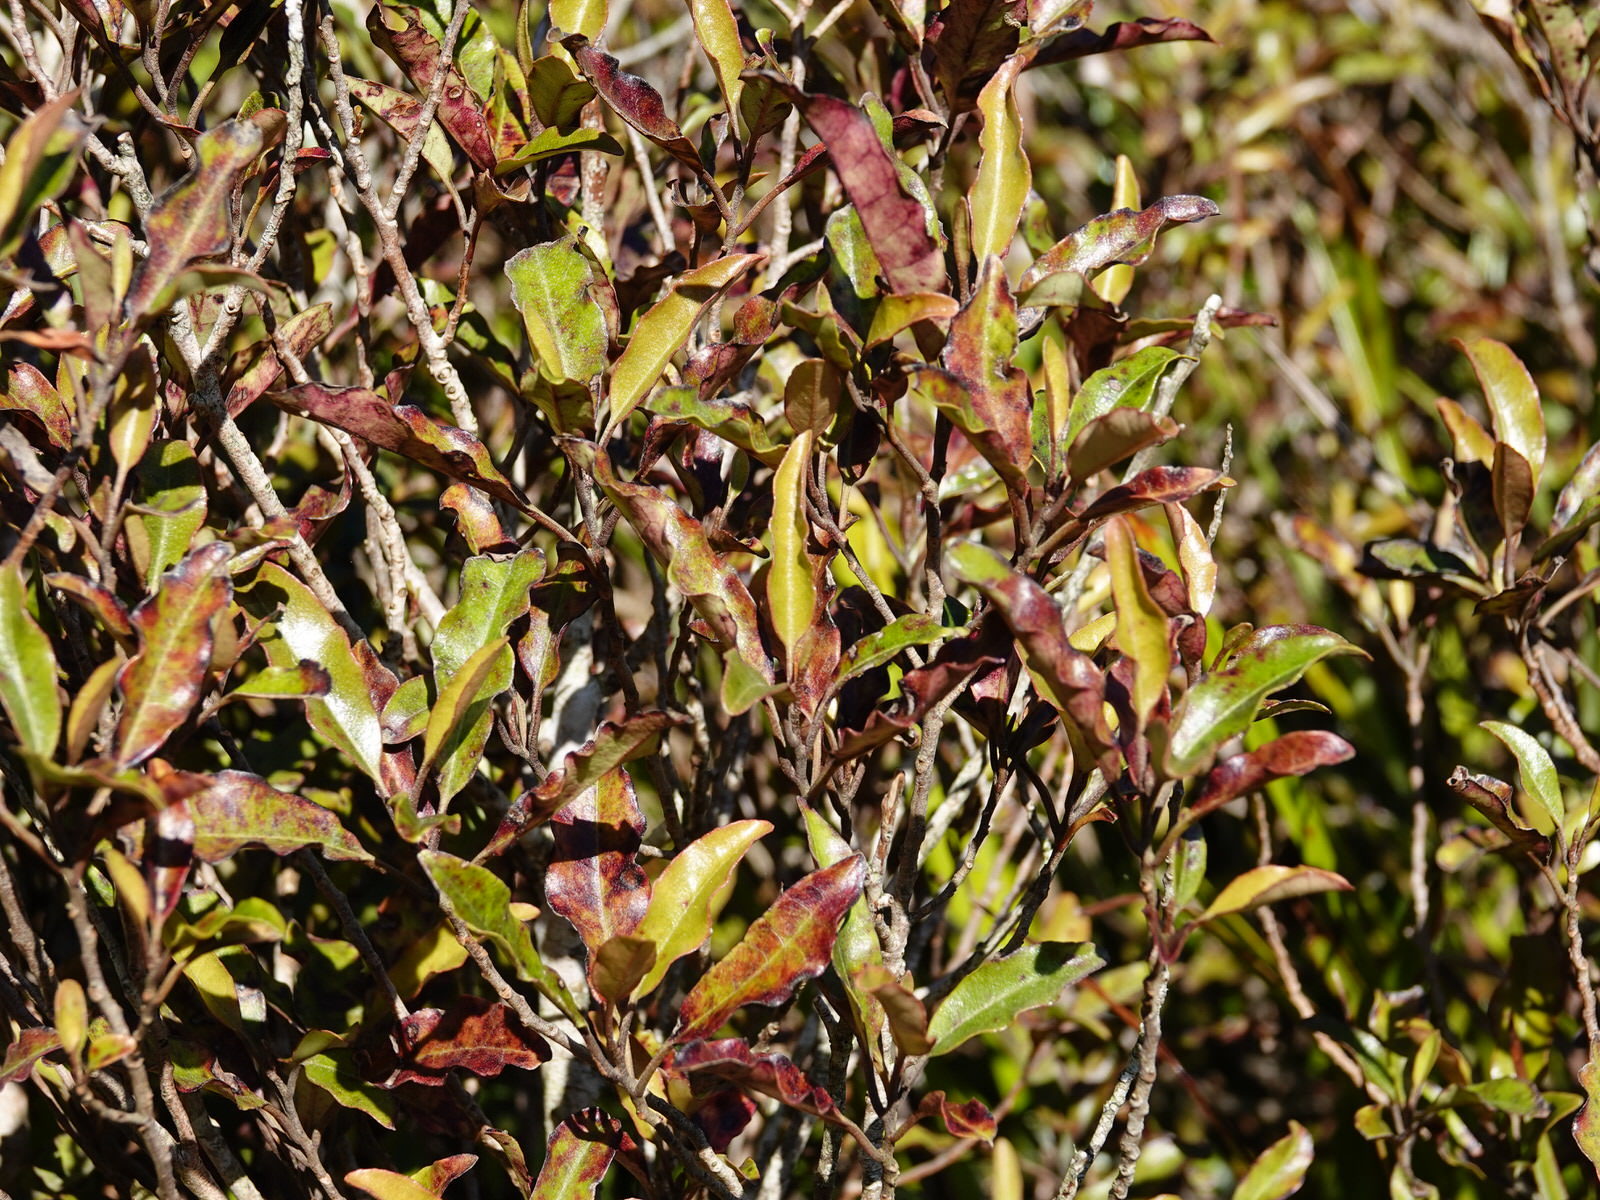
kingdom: Plantae
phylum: Tracheophyta
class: Magnoliopsida
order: Paracryphiales
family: Paracryphiaceae
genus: Quintinia
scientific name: Quintinia serrata
